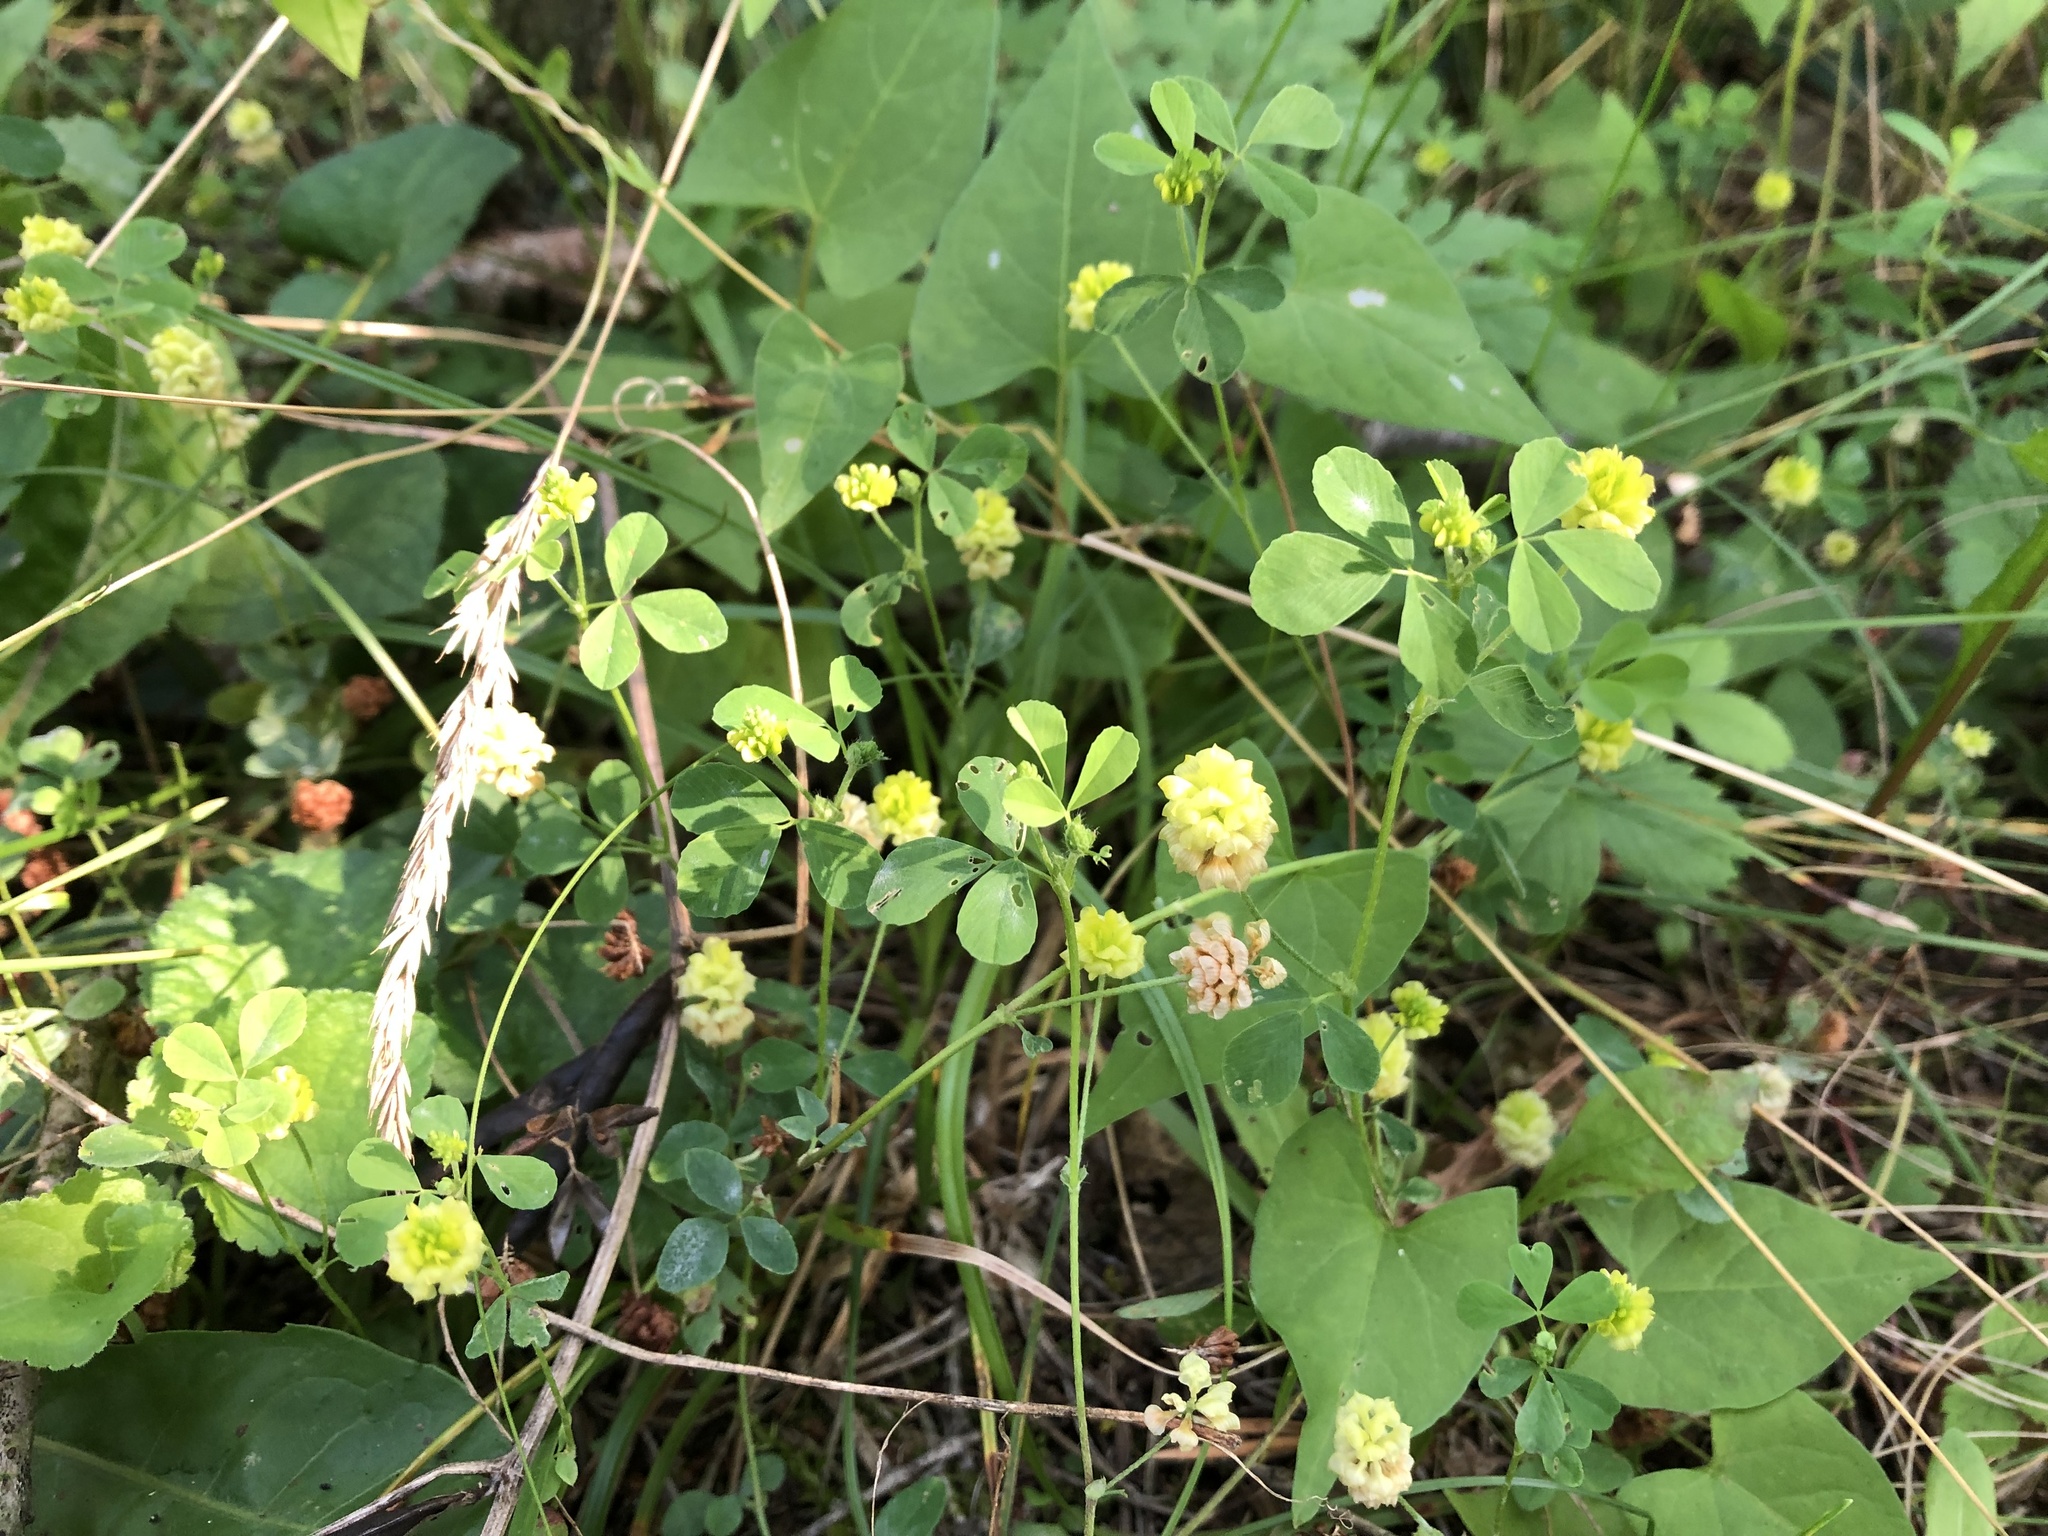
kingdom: Plantae
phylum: Tracheophyta
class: Magnoliopsida
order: Fabales
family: Fabaceae
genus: Trifolium
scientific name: Trifolium campestre
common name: Field clover
